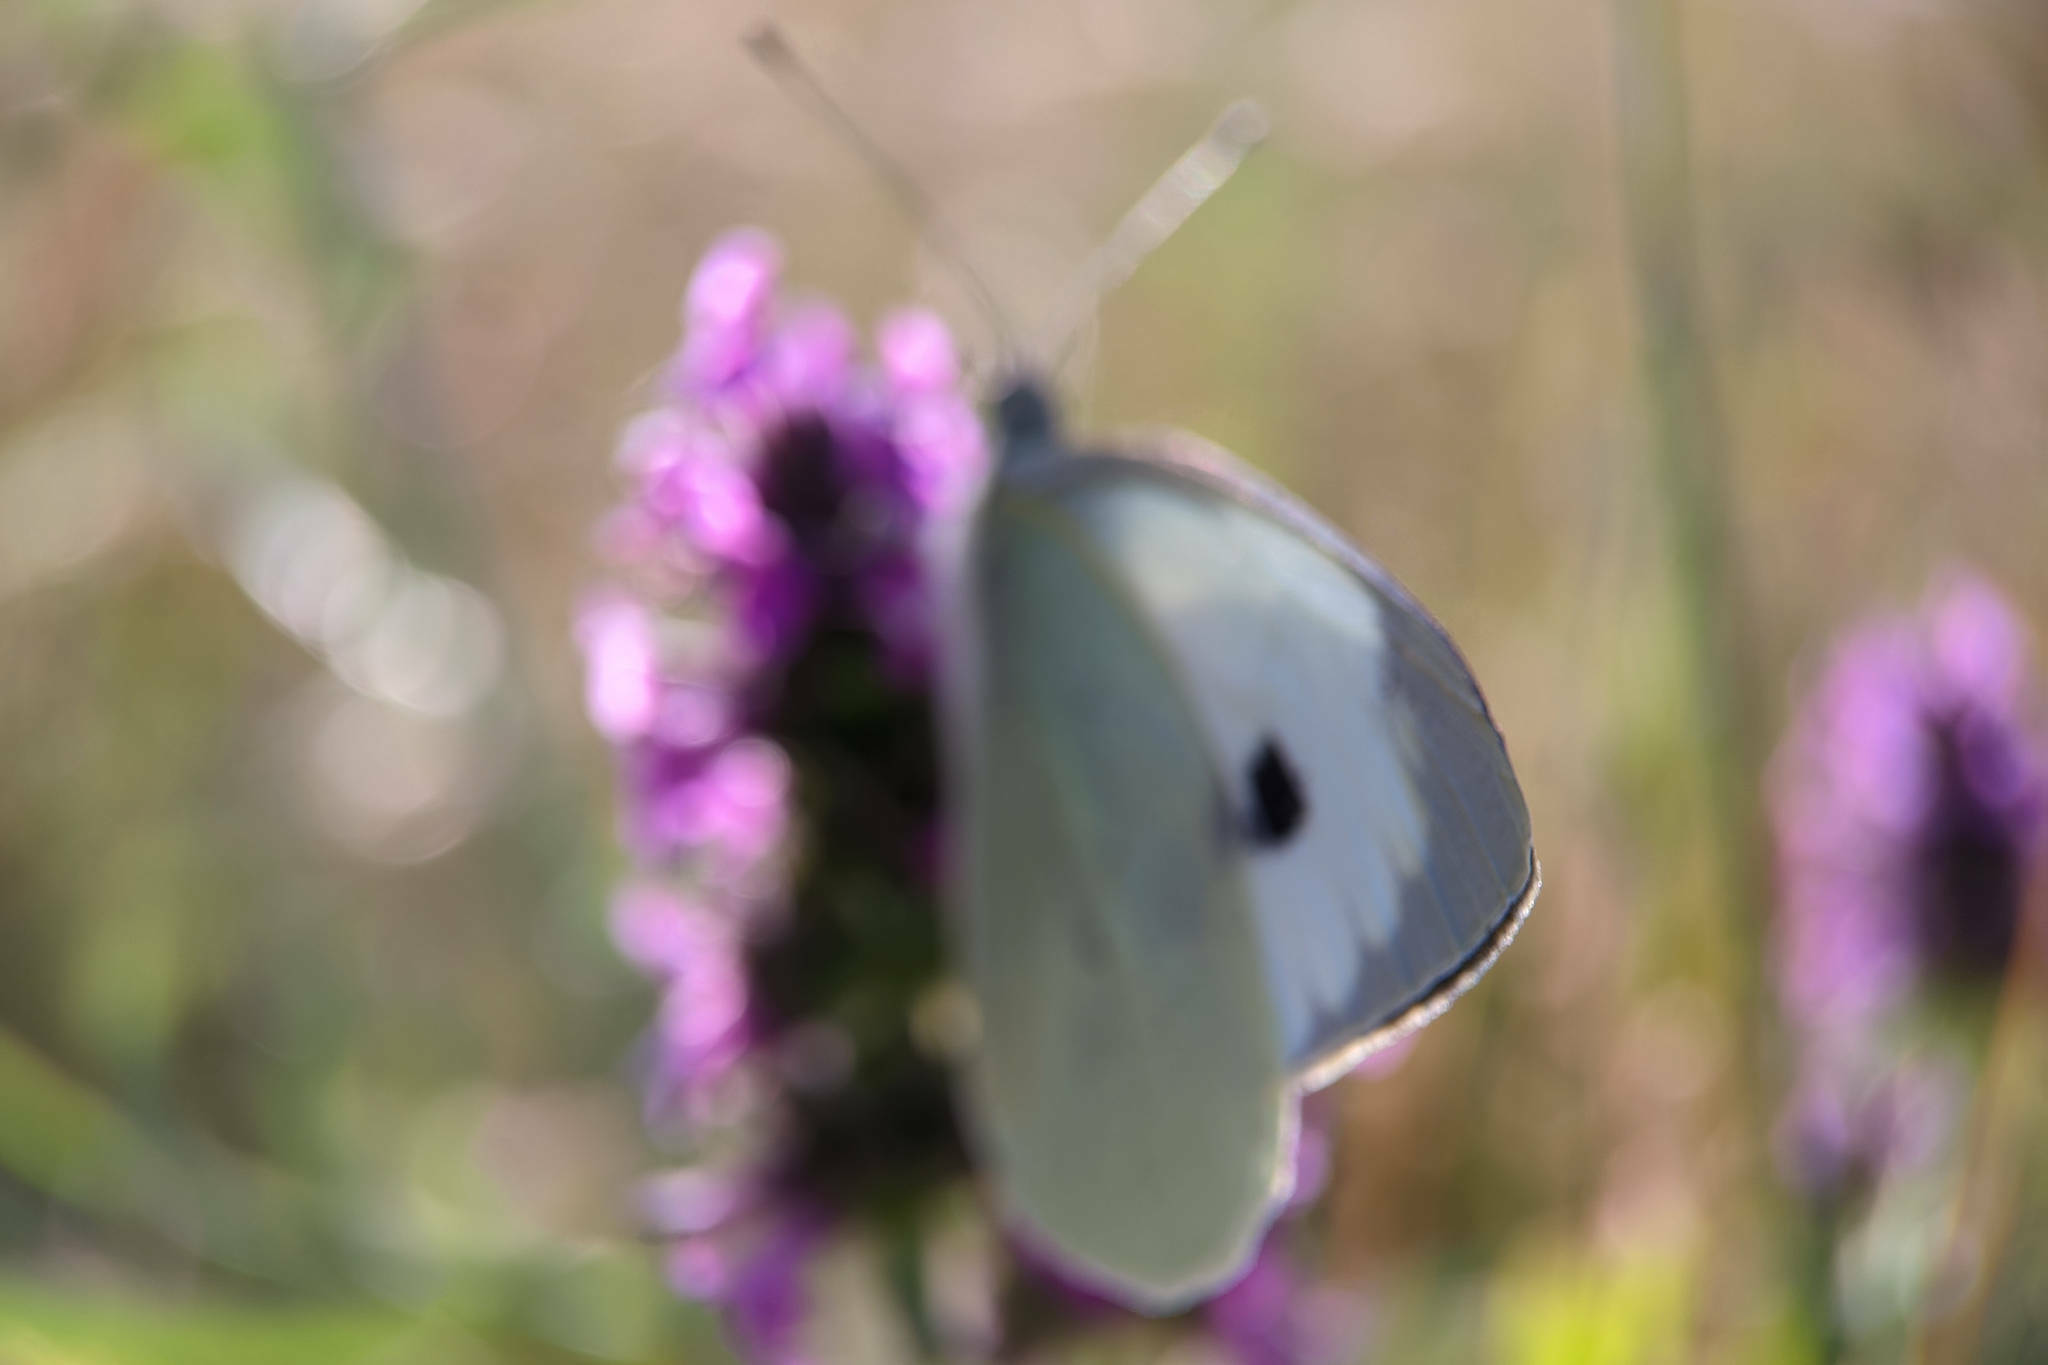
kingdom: Animalia
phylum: Arthropoda
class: Insecta
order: Lepidoptera
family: Pieridae
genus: Pieris
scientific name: Pieris brassicae
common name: Large white
